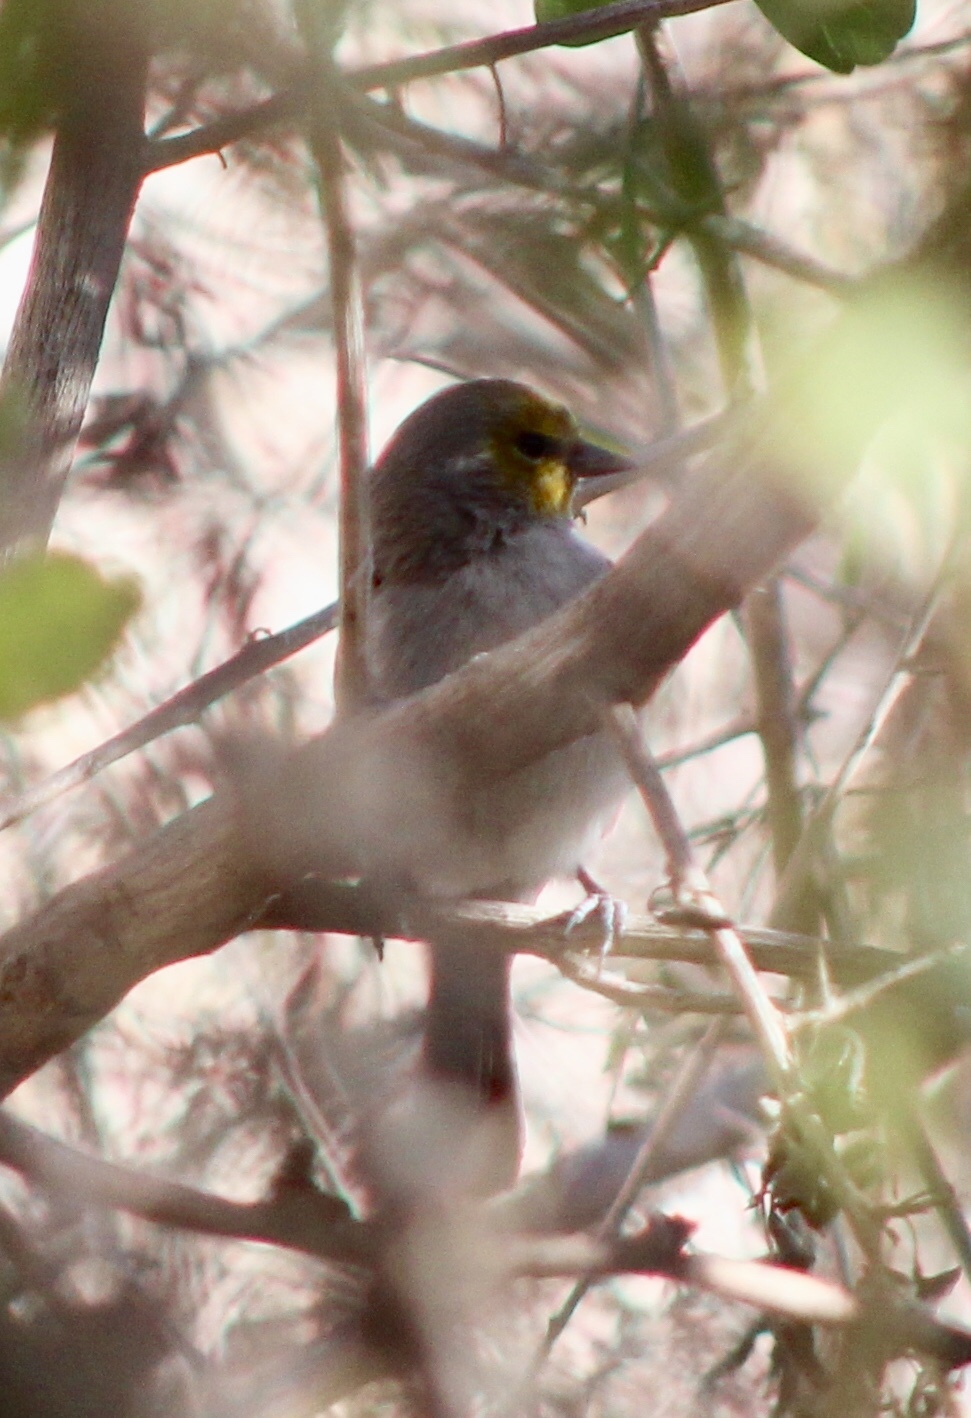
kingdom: Animalia
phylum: Chordata
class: Aves
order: Passeriformes
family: Remizidae
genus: Auriparus
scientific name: Auriparus flaviceps
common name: Verdin
